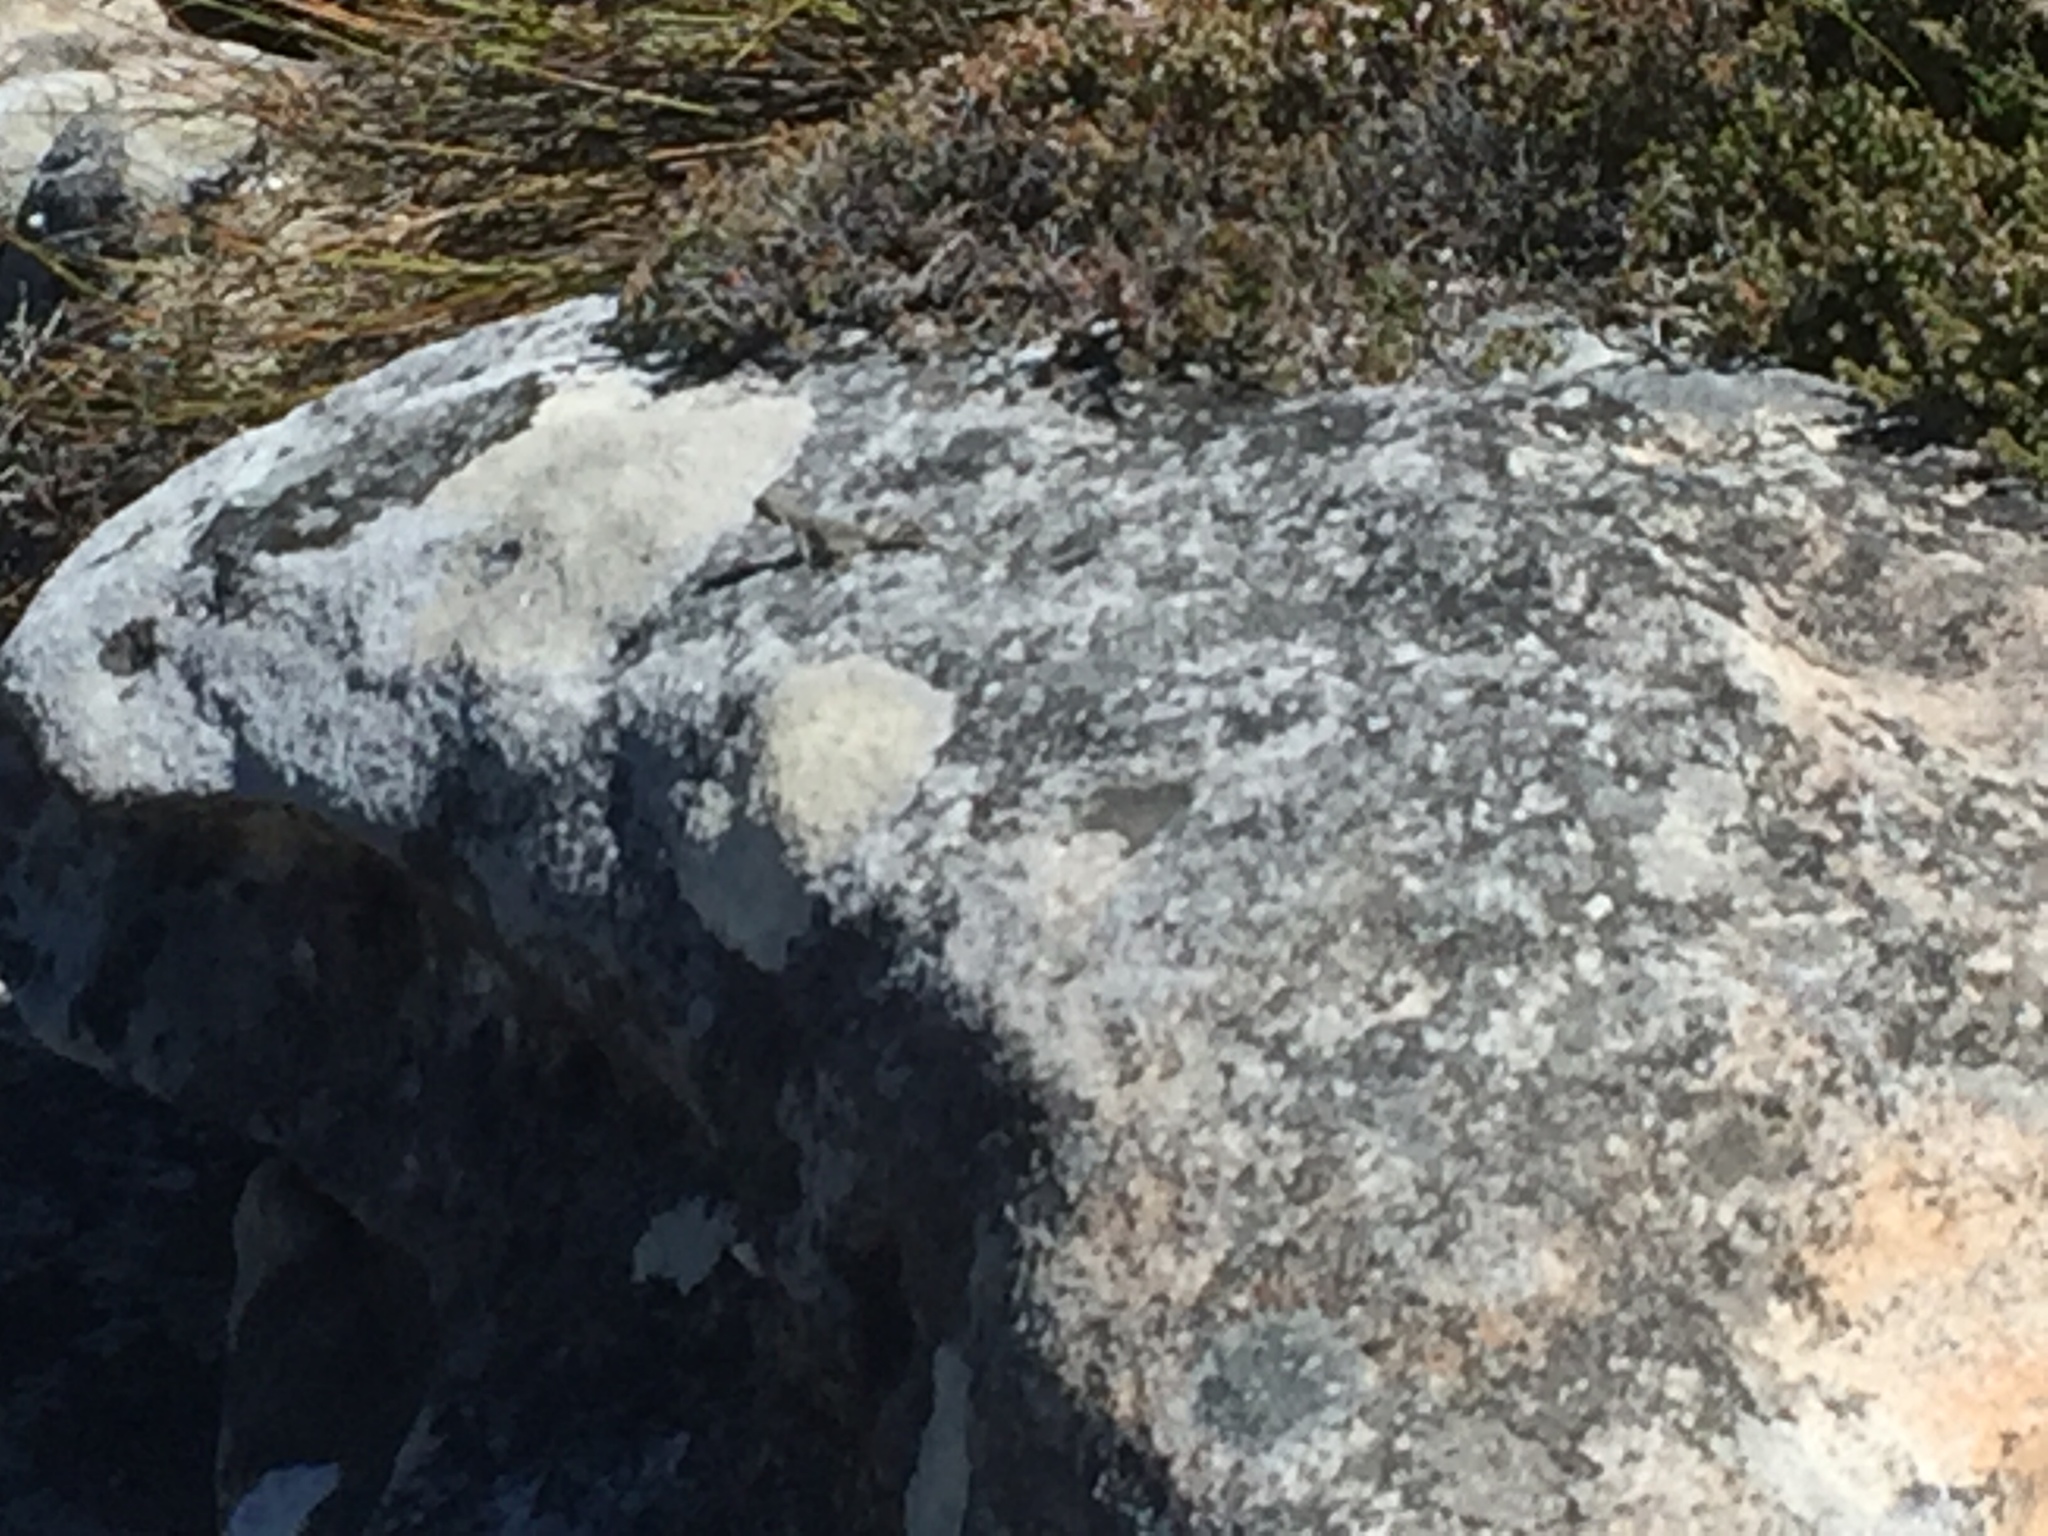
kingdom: Animalia
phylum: Chordata
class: Squamata
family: Agamidae
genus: Agama
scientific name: Agama atra
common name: Southern african rock agama
